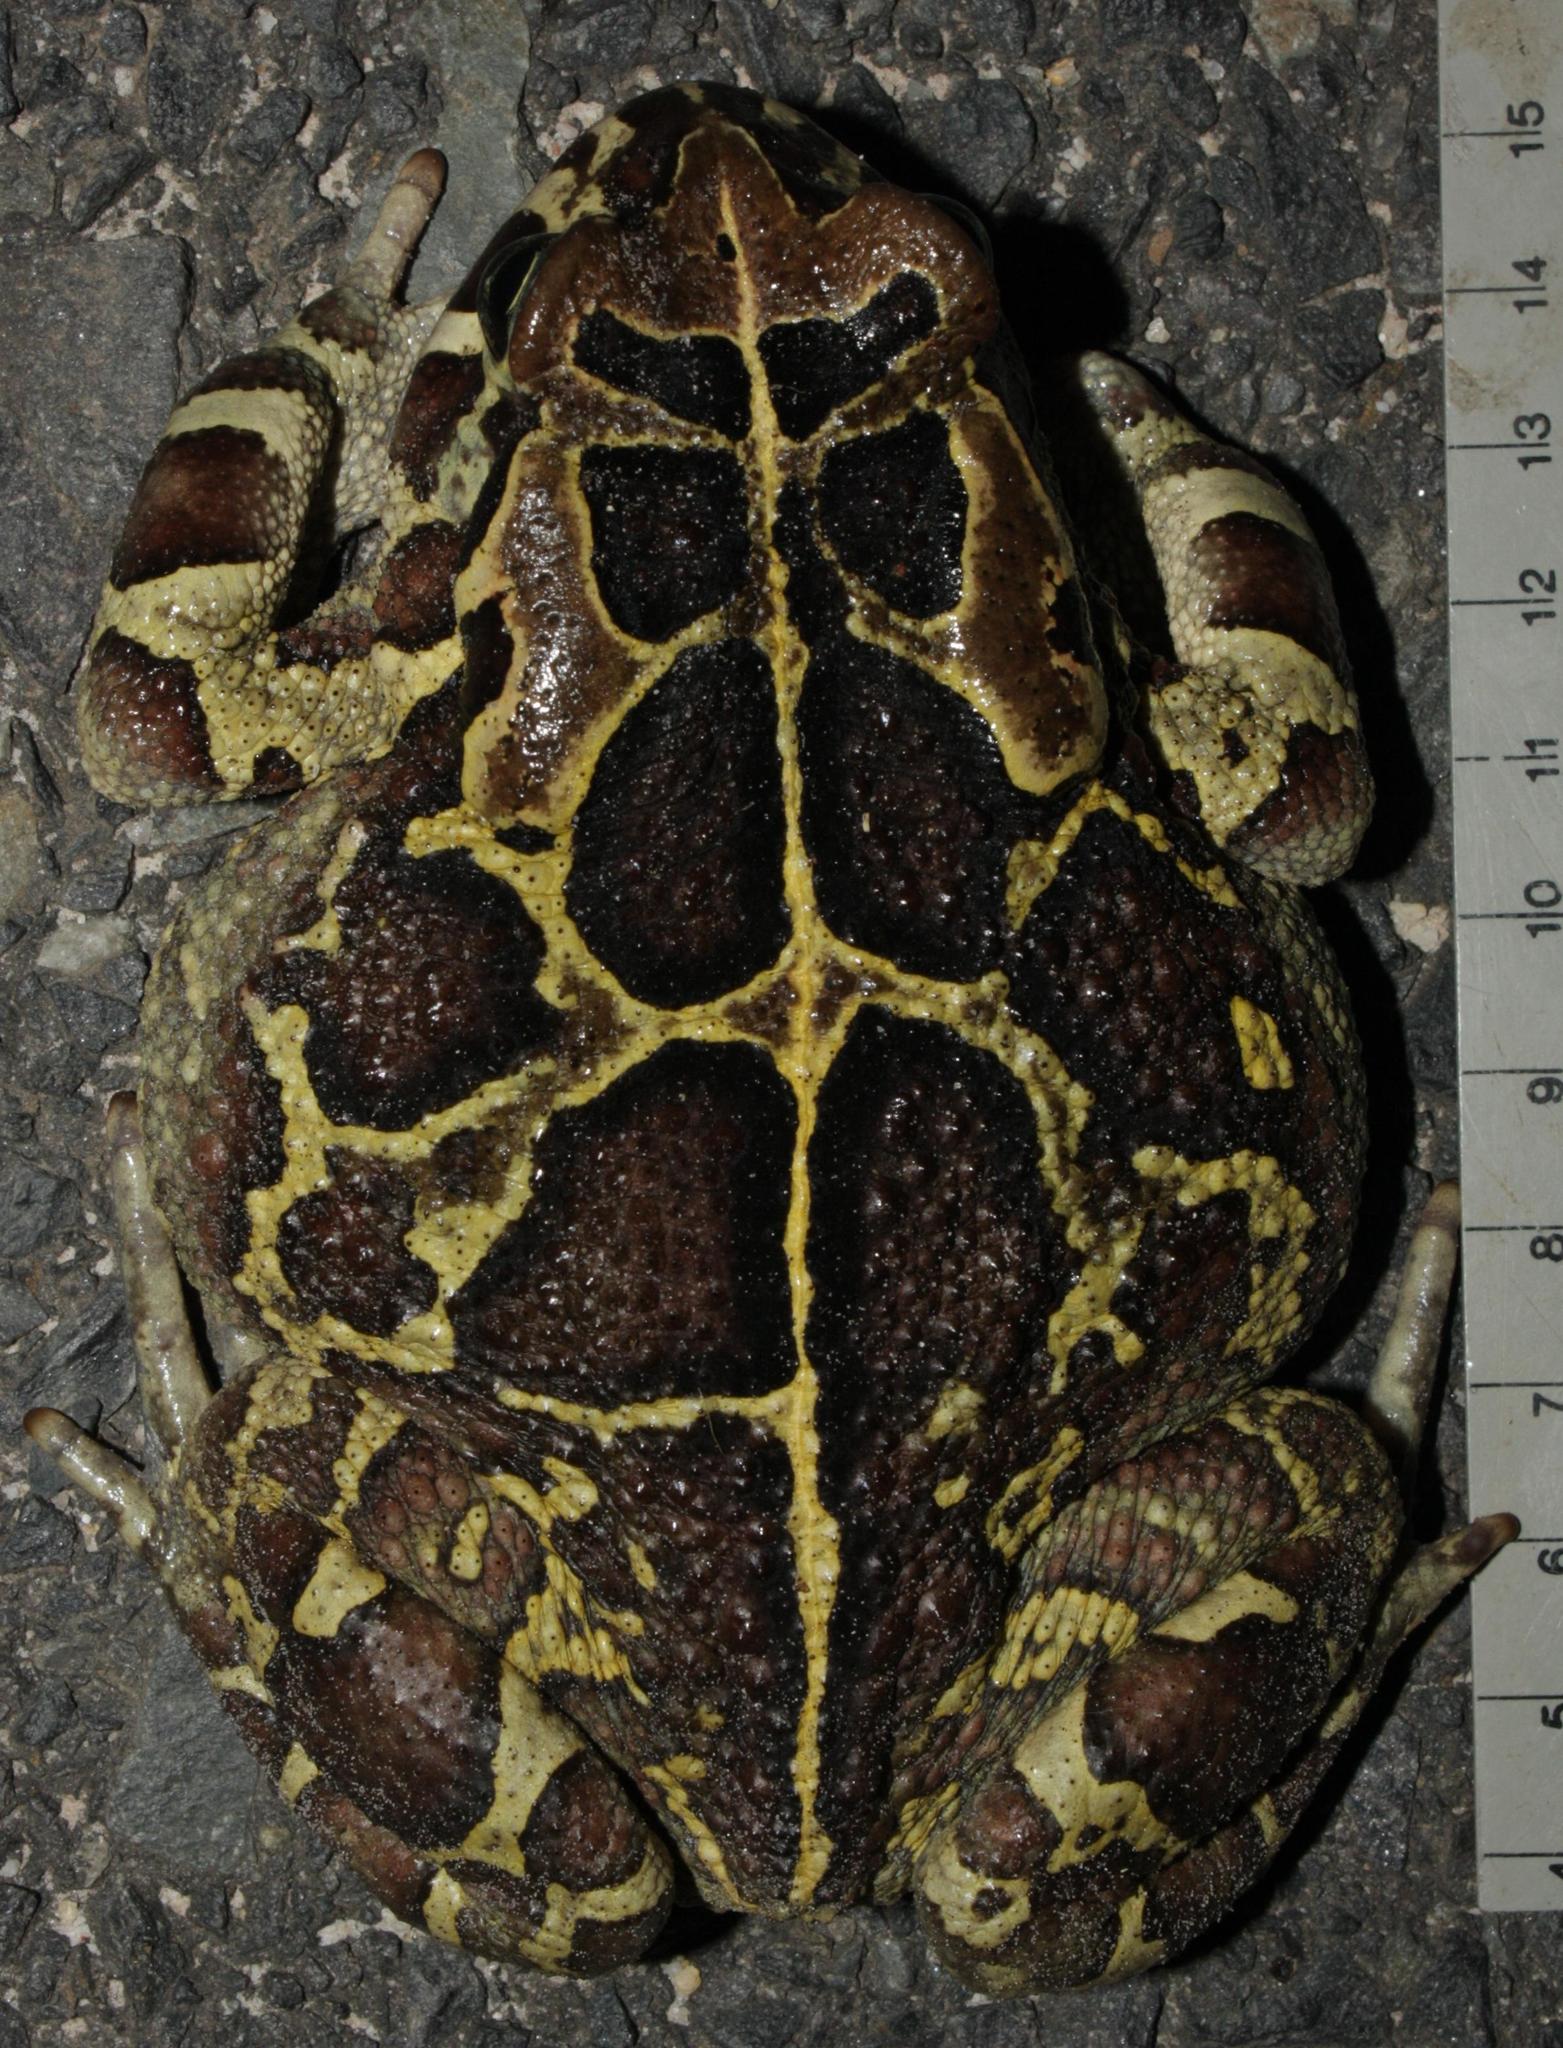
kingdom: Animalia
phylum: Chordata
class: Amphibia
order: Anura
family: Bufonidae
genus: Sclerophrys
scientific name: Sclerophrys pantherina
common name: Panther toad
